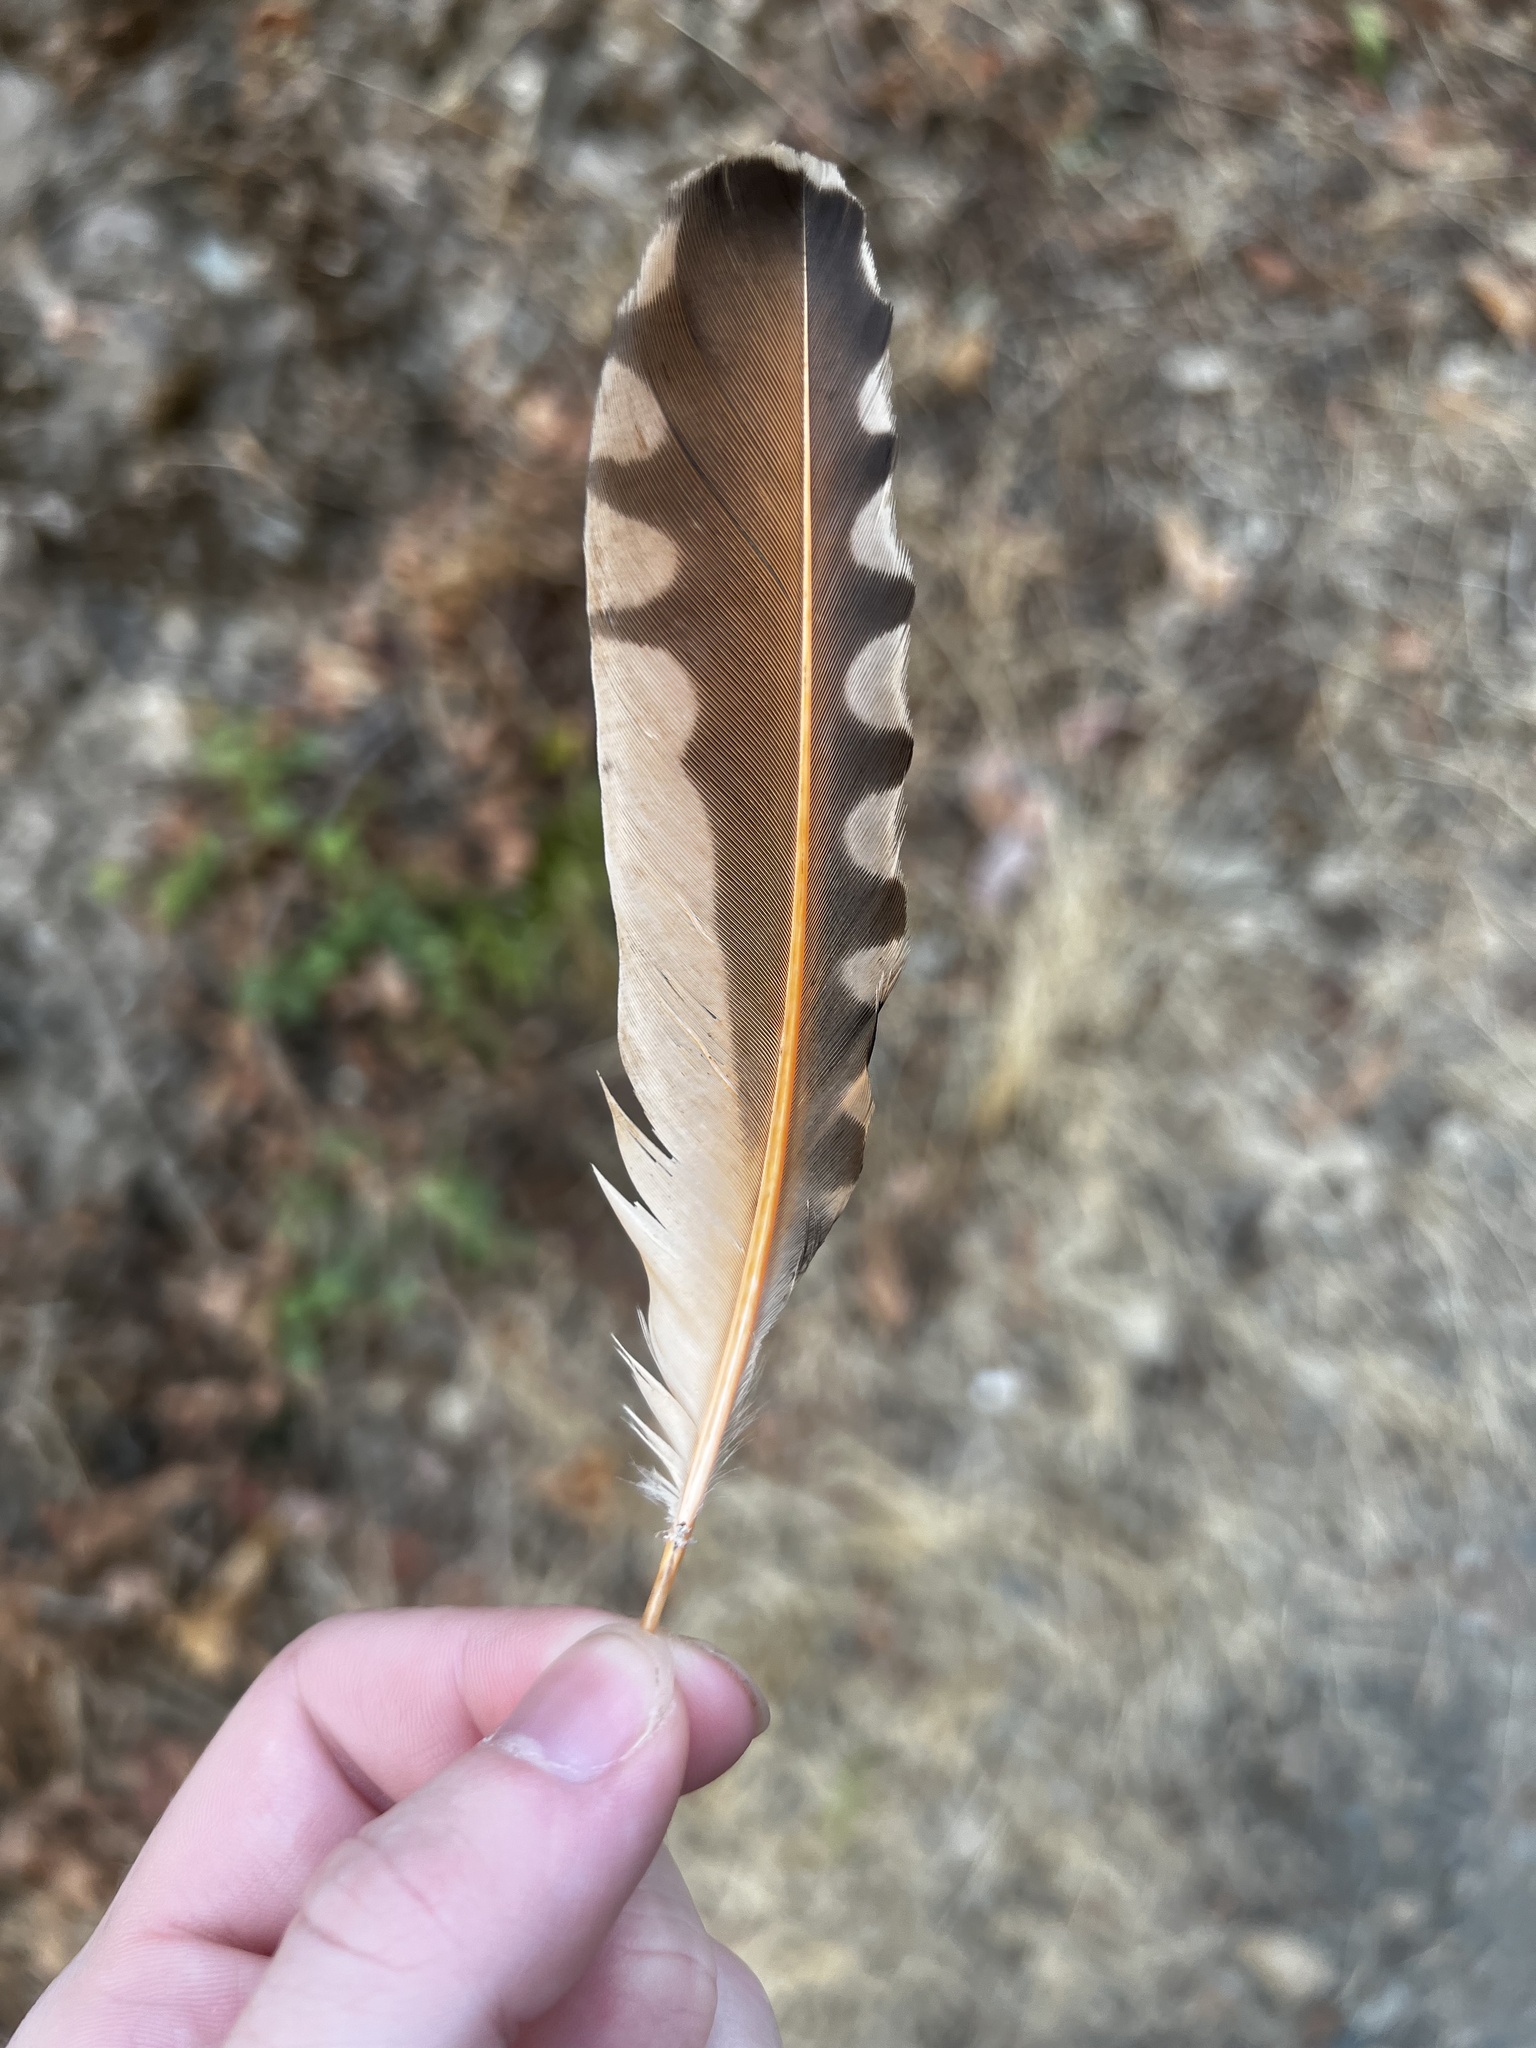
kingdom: Animalia
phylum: Chordata
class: Aves
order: Piciformes
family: Picidae
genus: Colaptes
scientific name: Colaptes auratus
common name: Northern flicker
